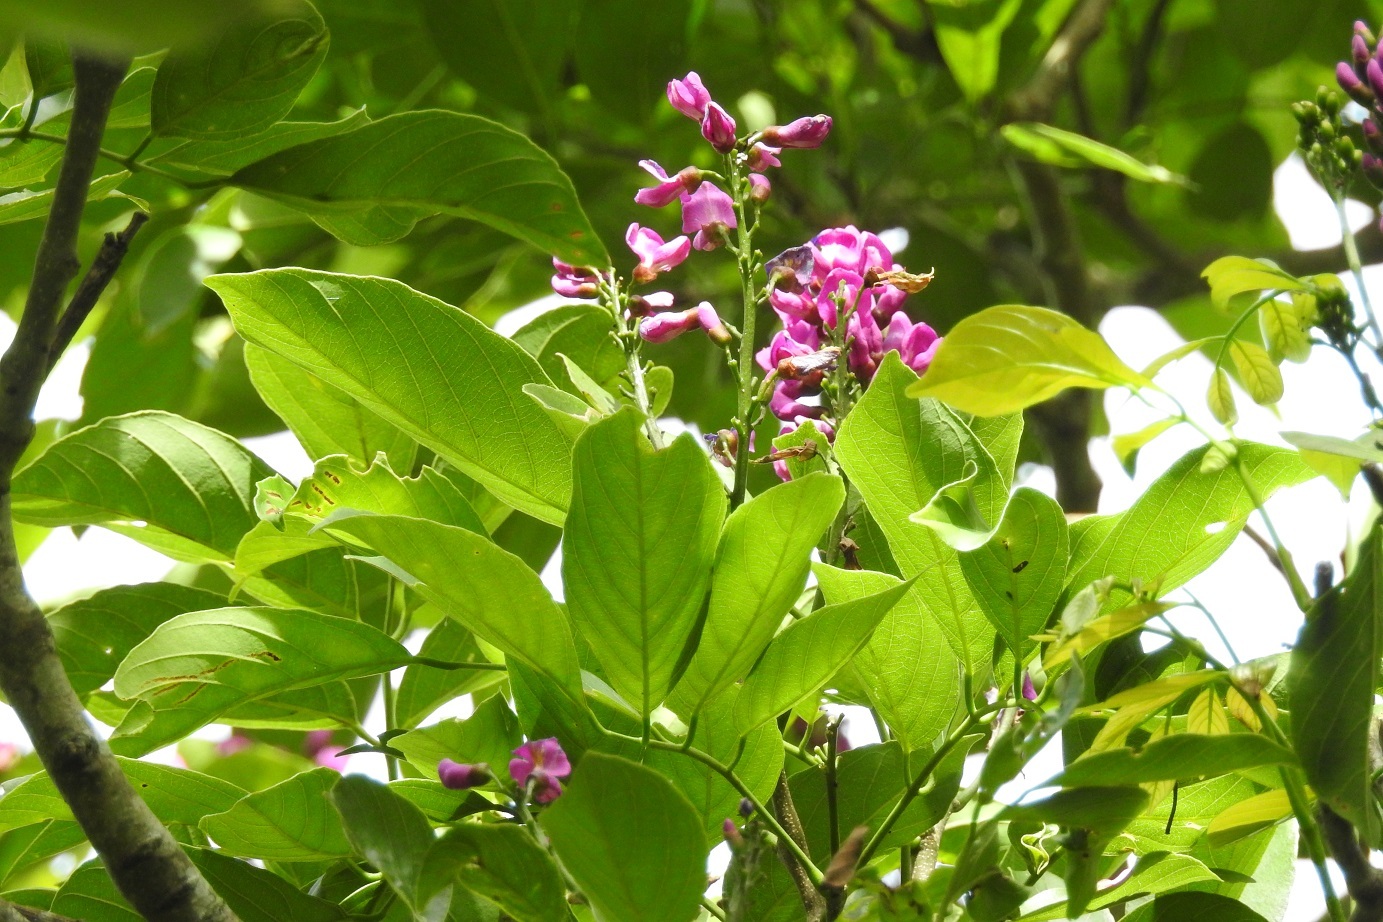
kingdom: Plantae
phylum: Tracheophyta
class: Magnoliopsida
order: Fabales
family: Fabaceae
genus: Lonchocarpus
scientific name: Lonchocarpus sumiderensis
